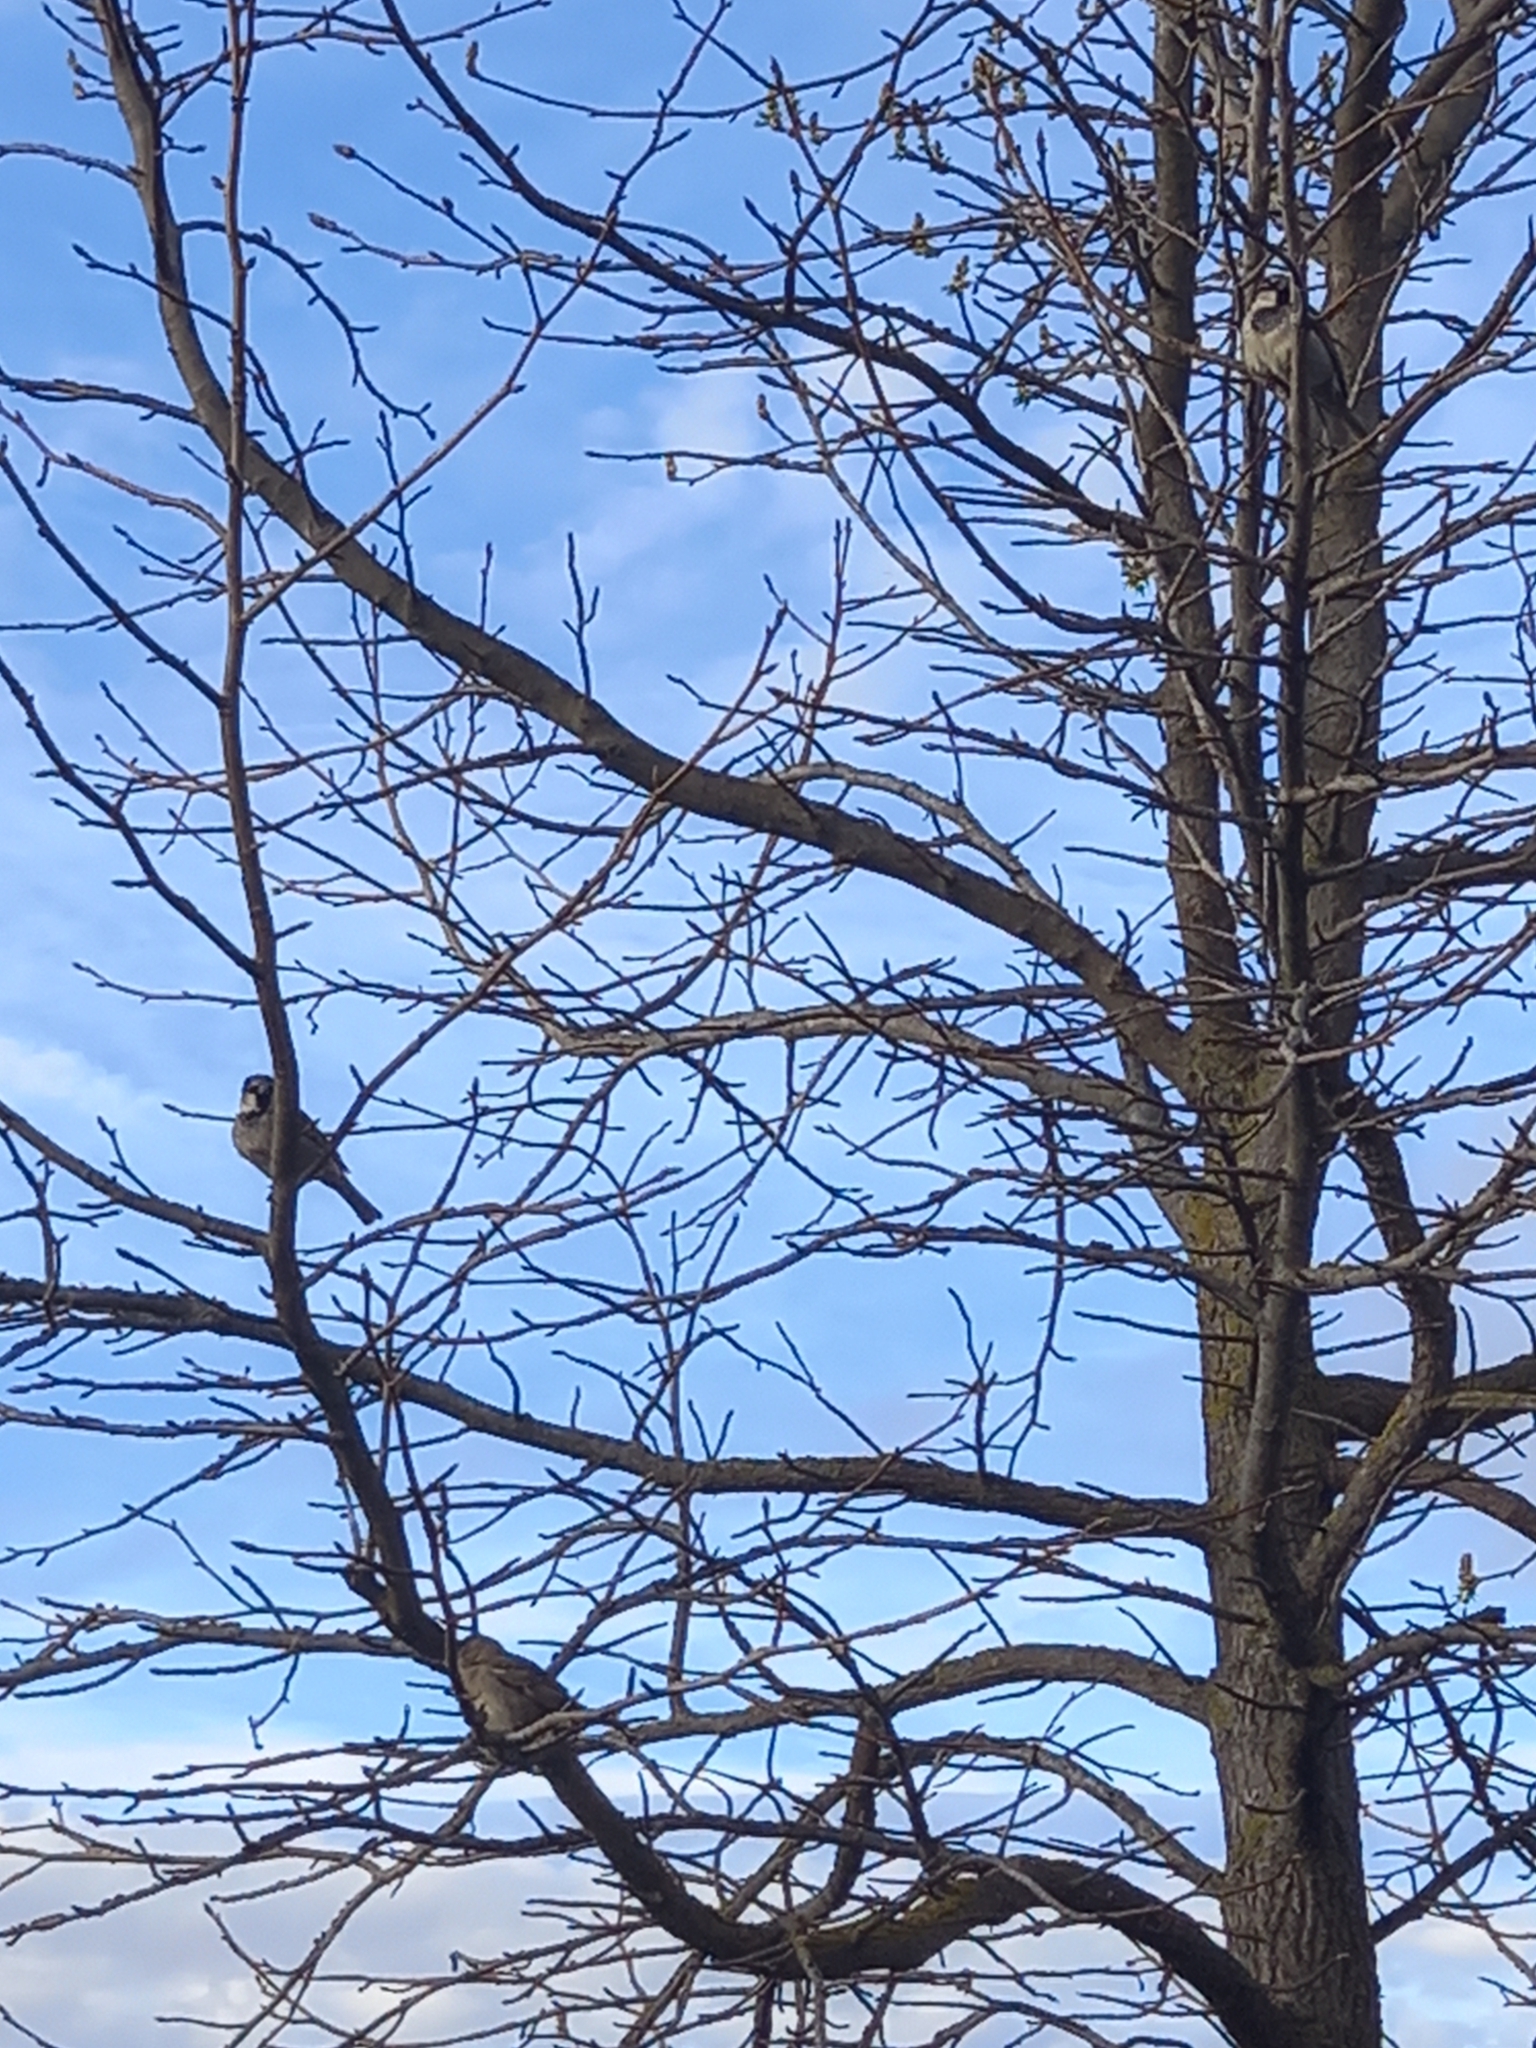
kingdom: Animalia
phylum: Chordata
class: Aves
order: Passeriformes
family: Passeridae
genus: Passer
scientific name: Passer domesticus
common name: House sparrow
